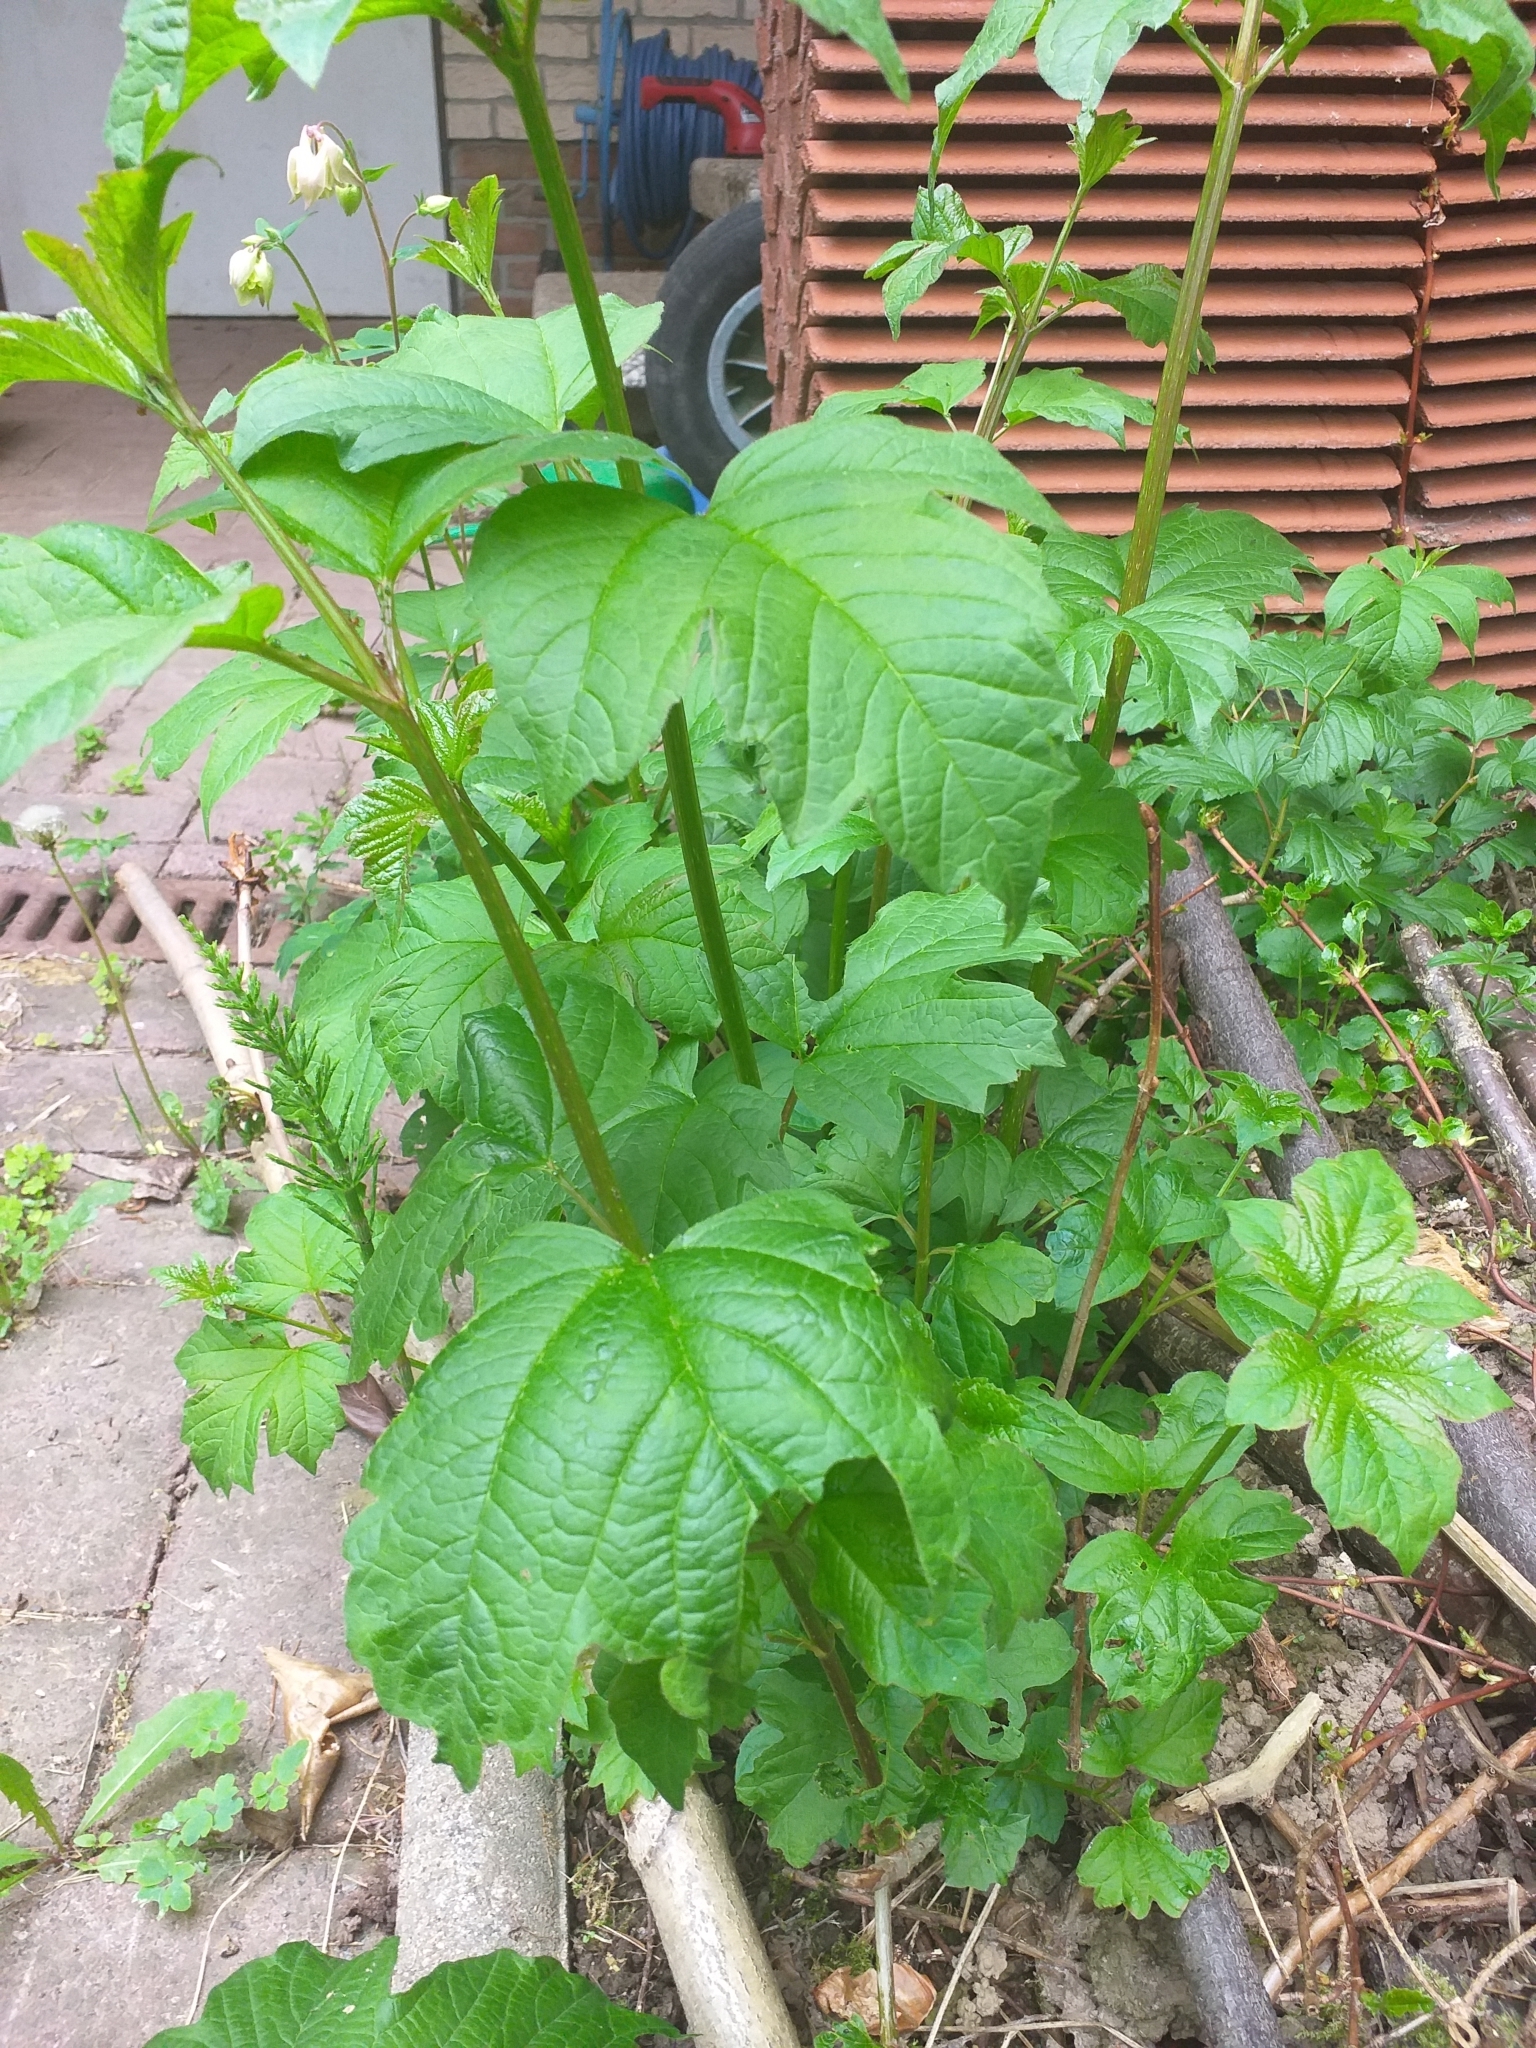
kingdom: Plantae
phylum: Tracheophyta
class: Magnoliopsida
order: Dipsacales
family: Viburnaceae
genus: Viburnum
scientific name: Viburnum opulus
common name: Guelder-rose
